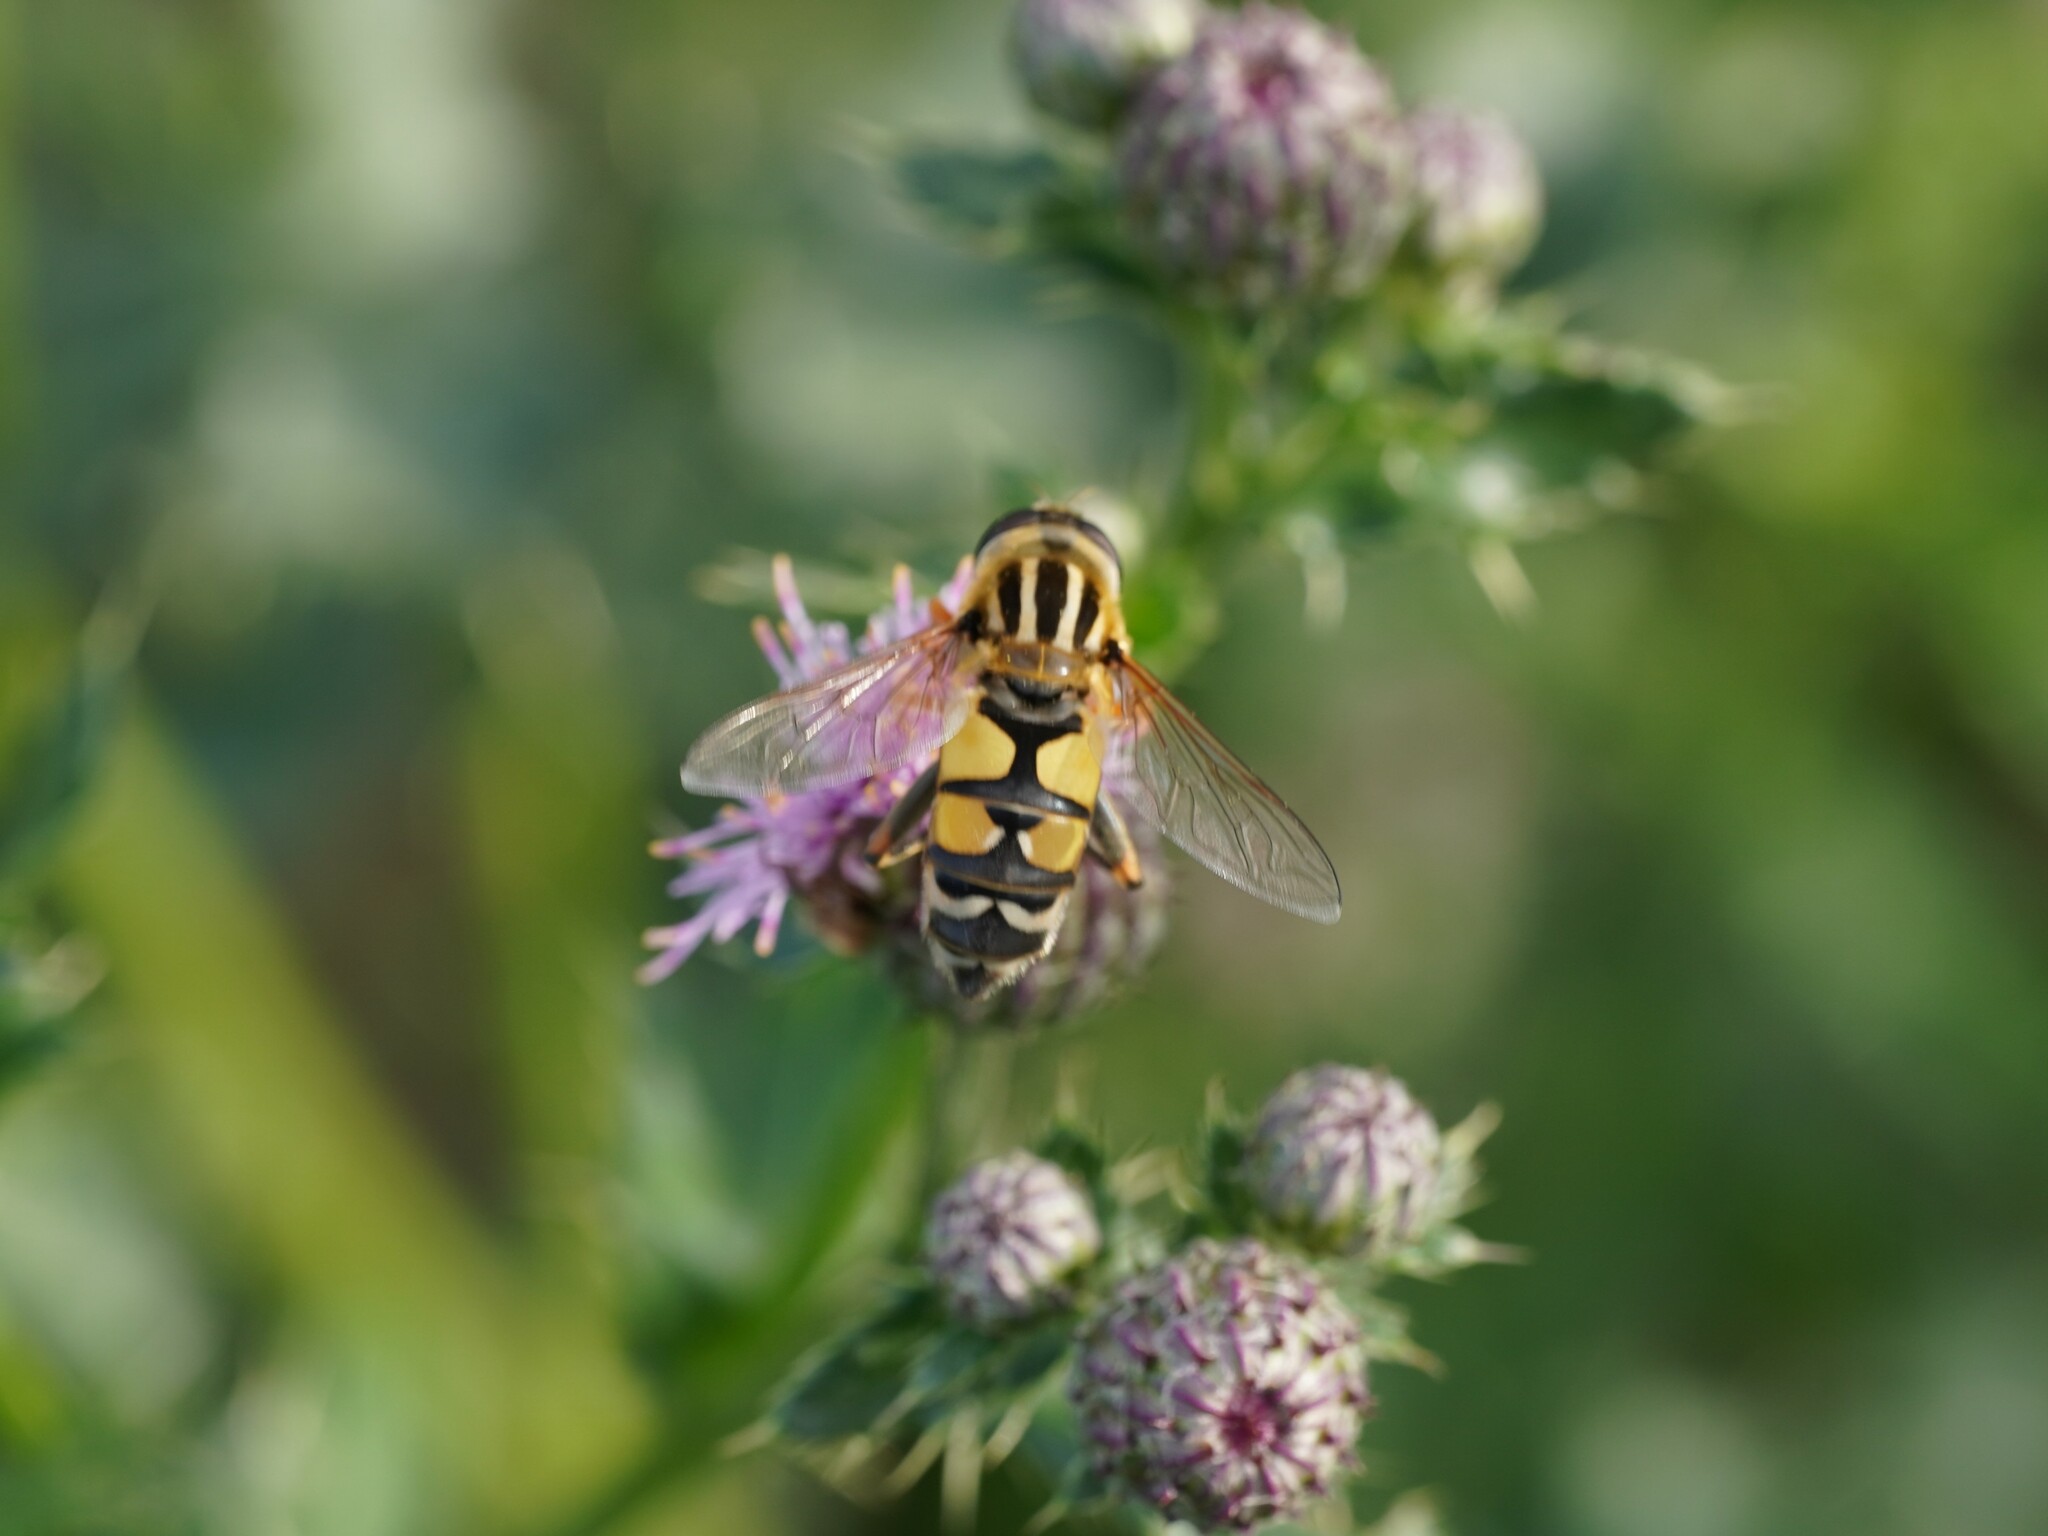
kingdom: Animalia
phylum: Arthropoda
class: Insecta
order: Diptera
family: Syrphidae
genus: Helophilus
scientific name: Helophilus trivittatus
